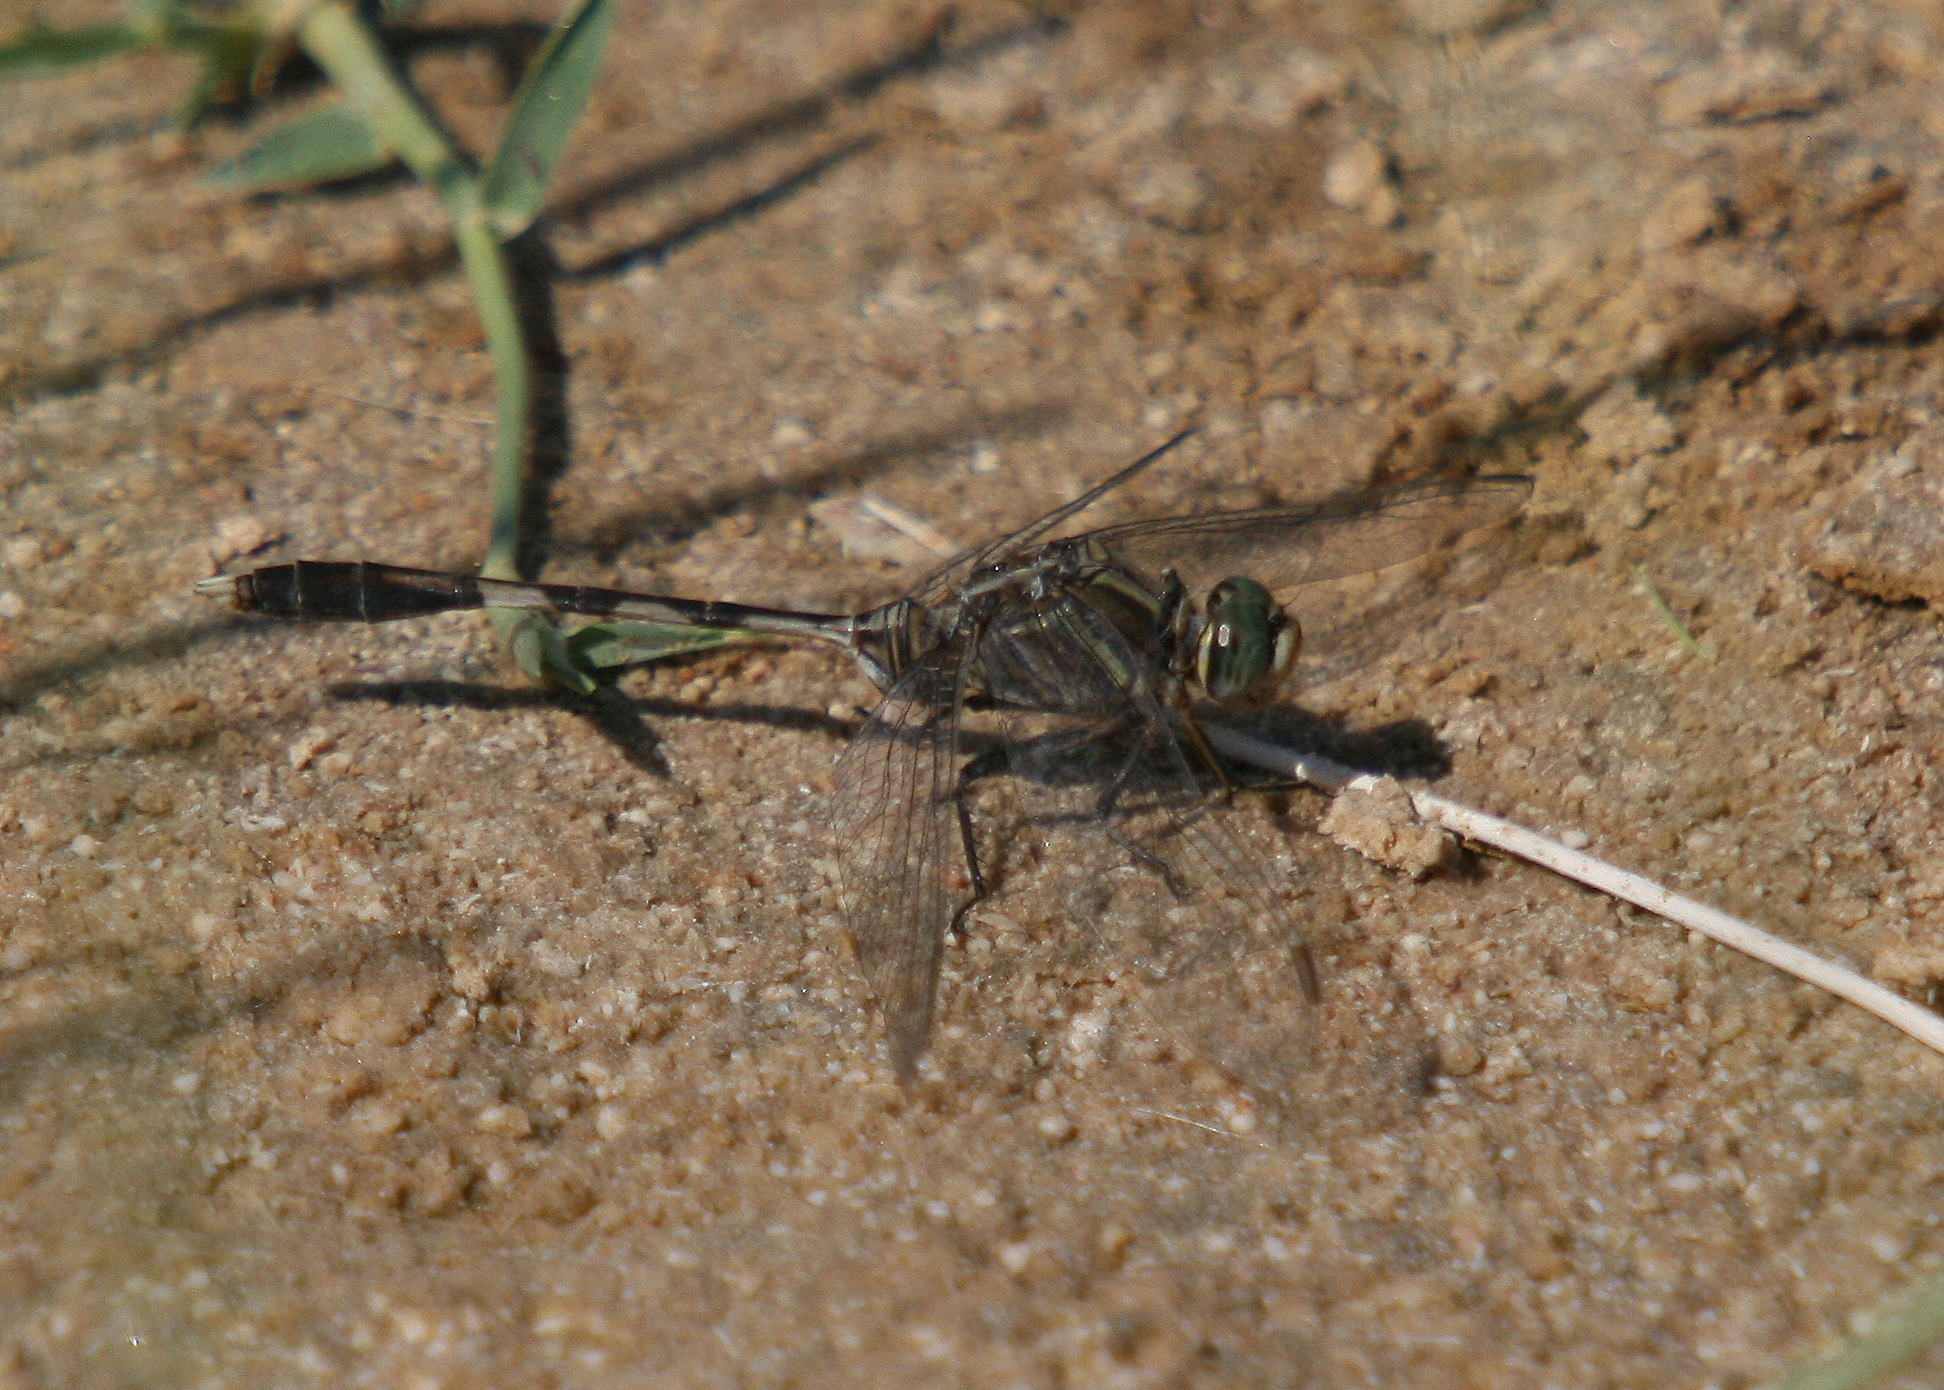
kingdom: Animalia
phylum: Arthropoda
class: Insecta
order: Odonata
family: Libellulidae
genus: Orthetrum
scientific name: Orthetrum sabina
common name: Slender skimmer
